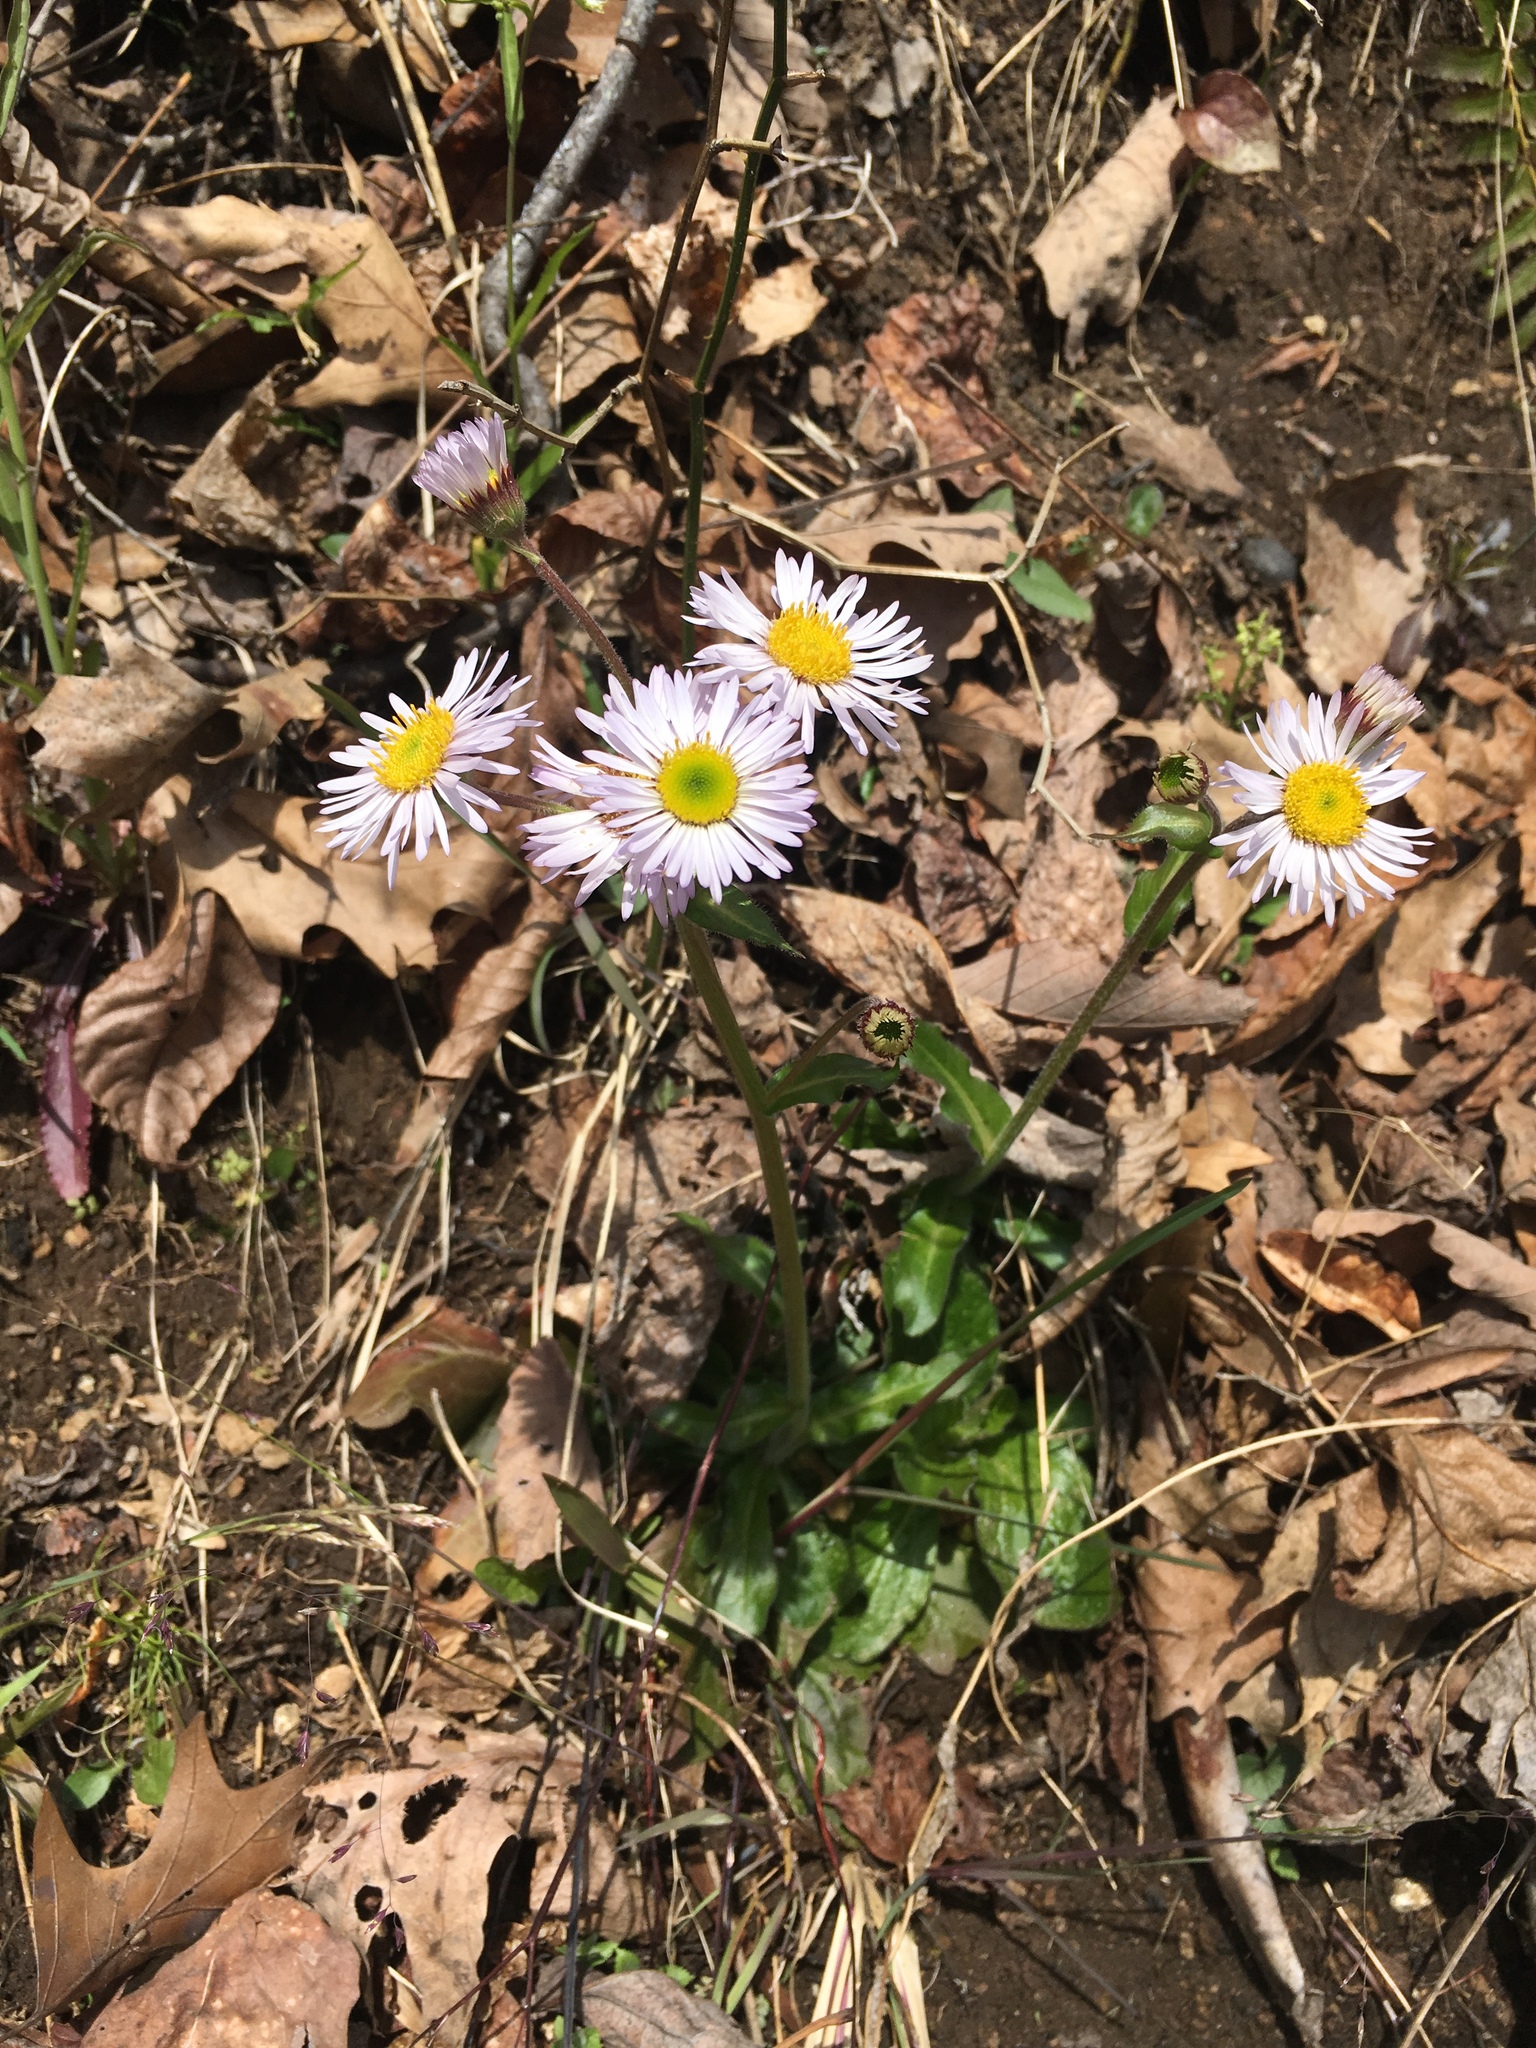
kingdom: Plantae
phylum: Tracheophyta
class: Magnoliopsida
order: Asterales
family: Asteraceae
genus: Erigeron
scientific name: Erigeron pulchellus
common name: Hairy fleabane
